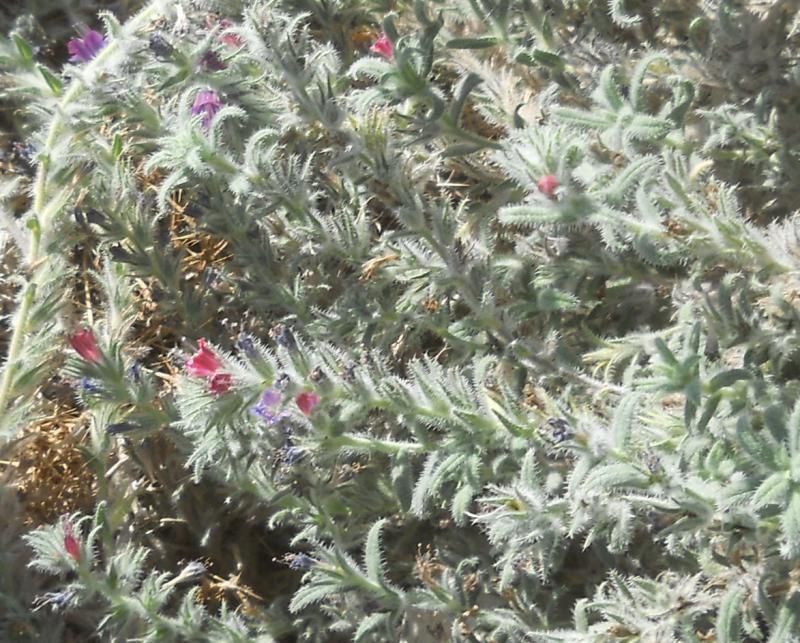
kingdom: Plantae
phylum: Tracheophyta
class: Magnoliopsida
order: Boraginales
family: Boraginaceae
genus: Echium
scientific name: Echium angustifolium
